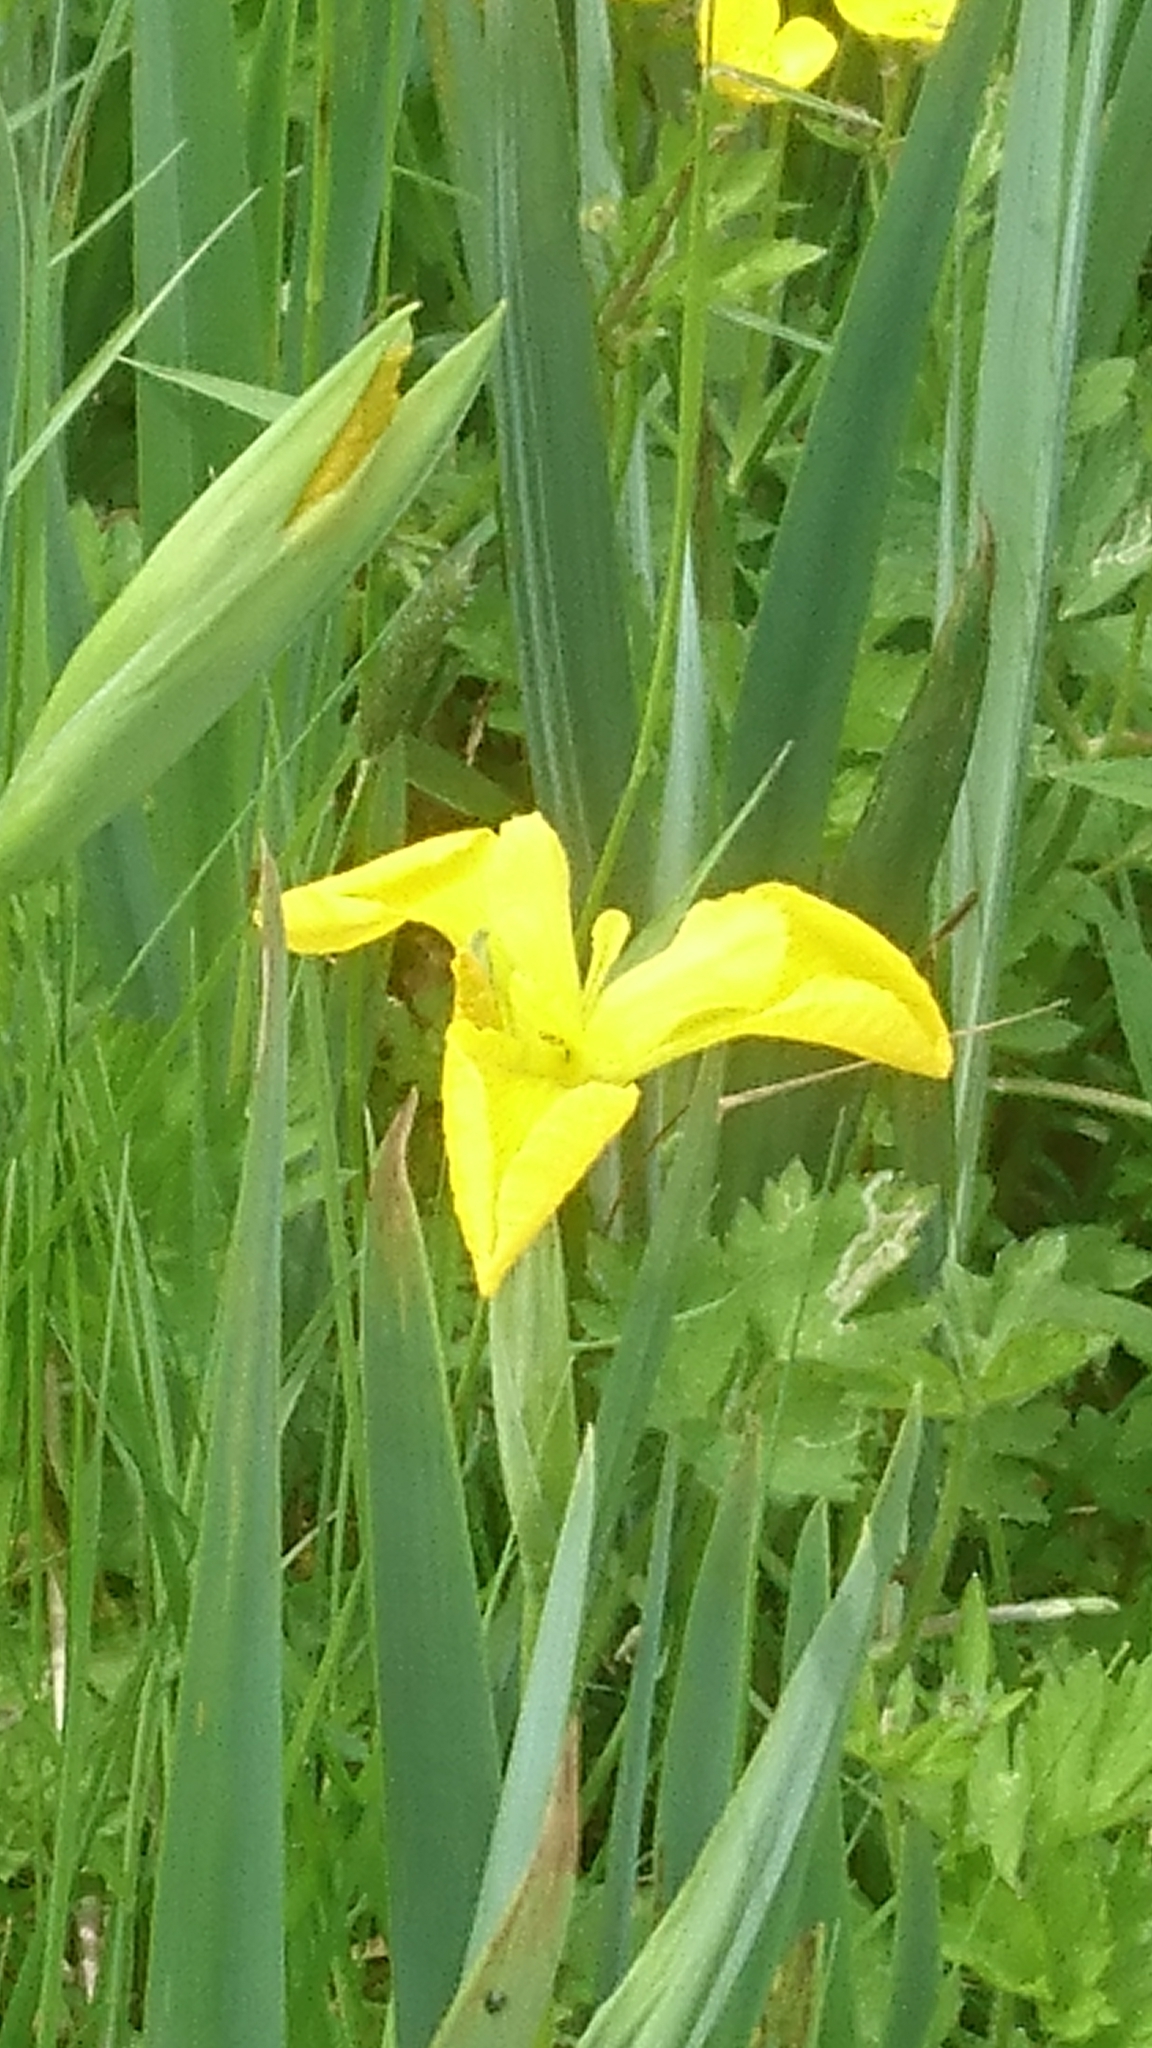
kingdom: Plantae
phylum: Tracheophyta
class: Liliopsida
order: Asparagales
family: Iridaceae
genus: Iris
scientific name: Iris pseudacorus
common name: Yellow flag
